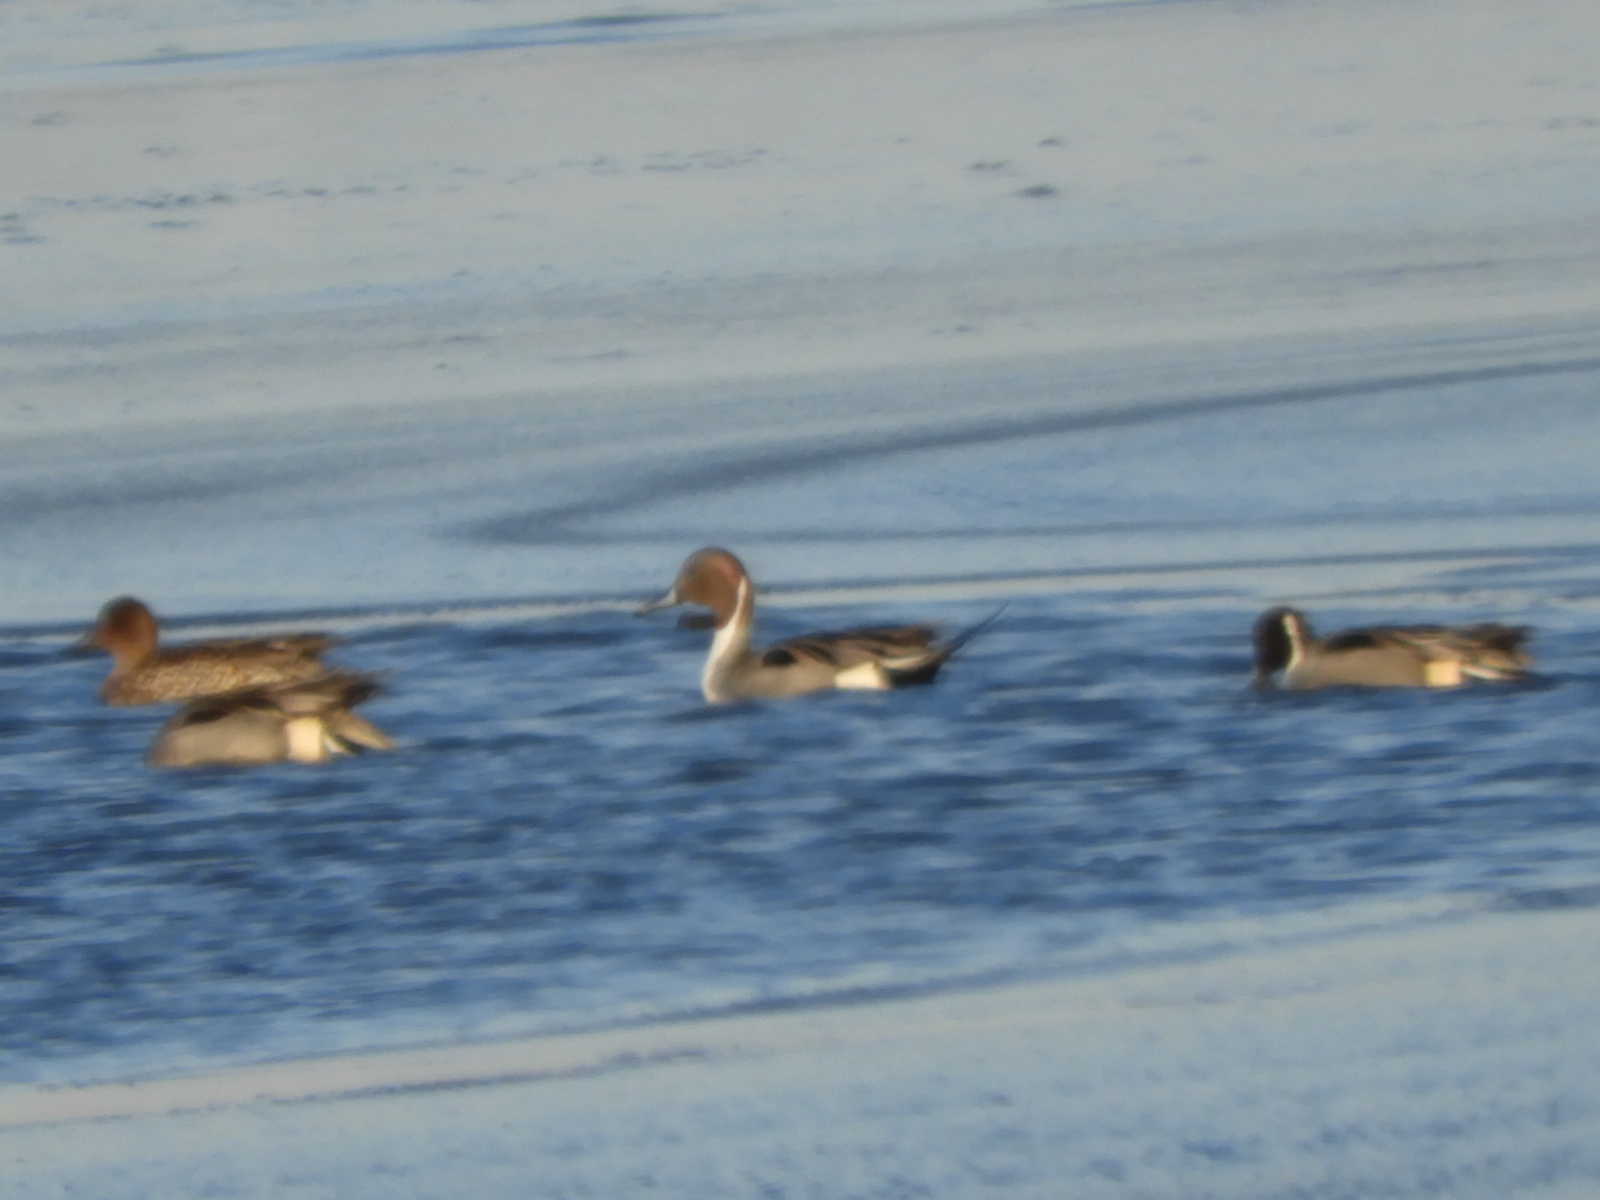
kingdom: Animalia
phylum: Chordata
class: Aves
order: Anseriformes
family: Anatidae
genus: Anas
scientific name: Anas acuta
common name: Northern pintail
